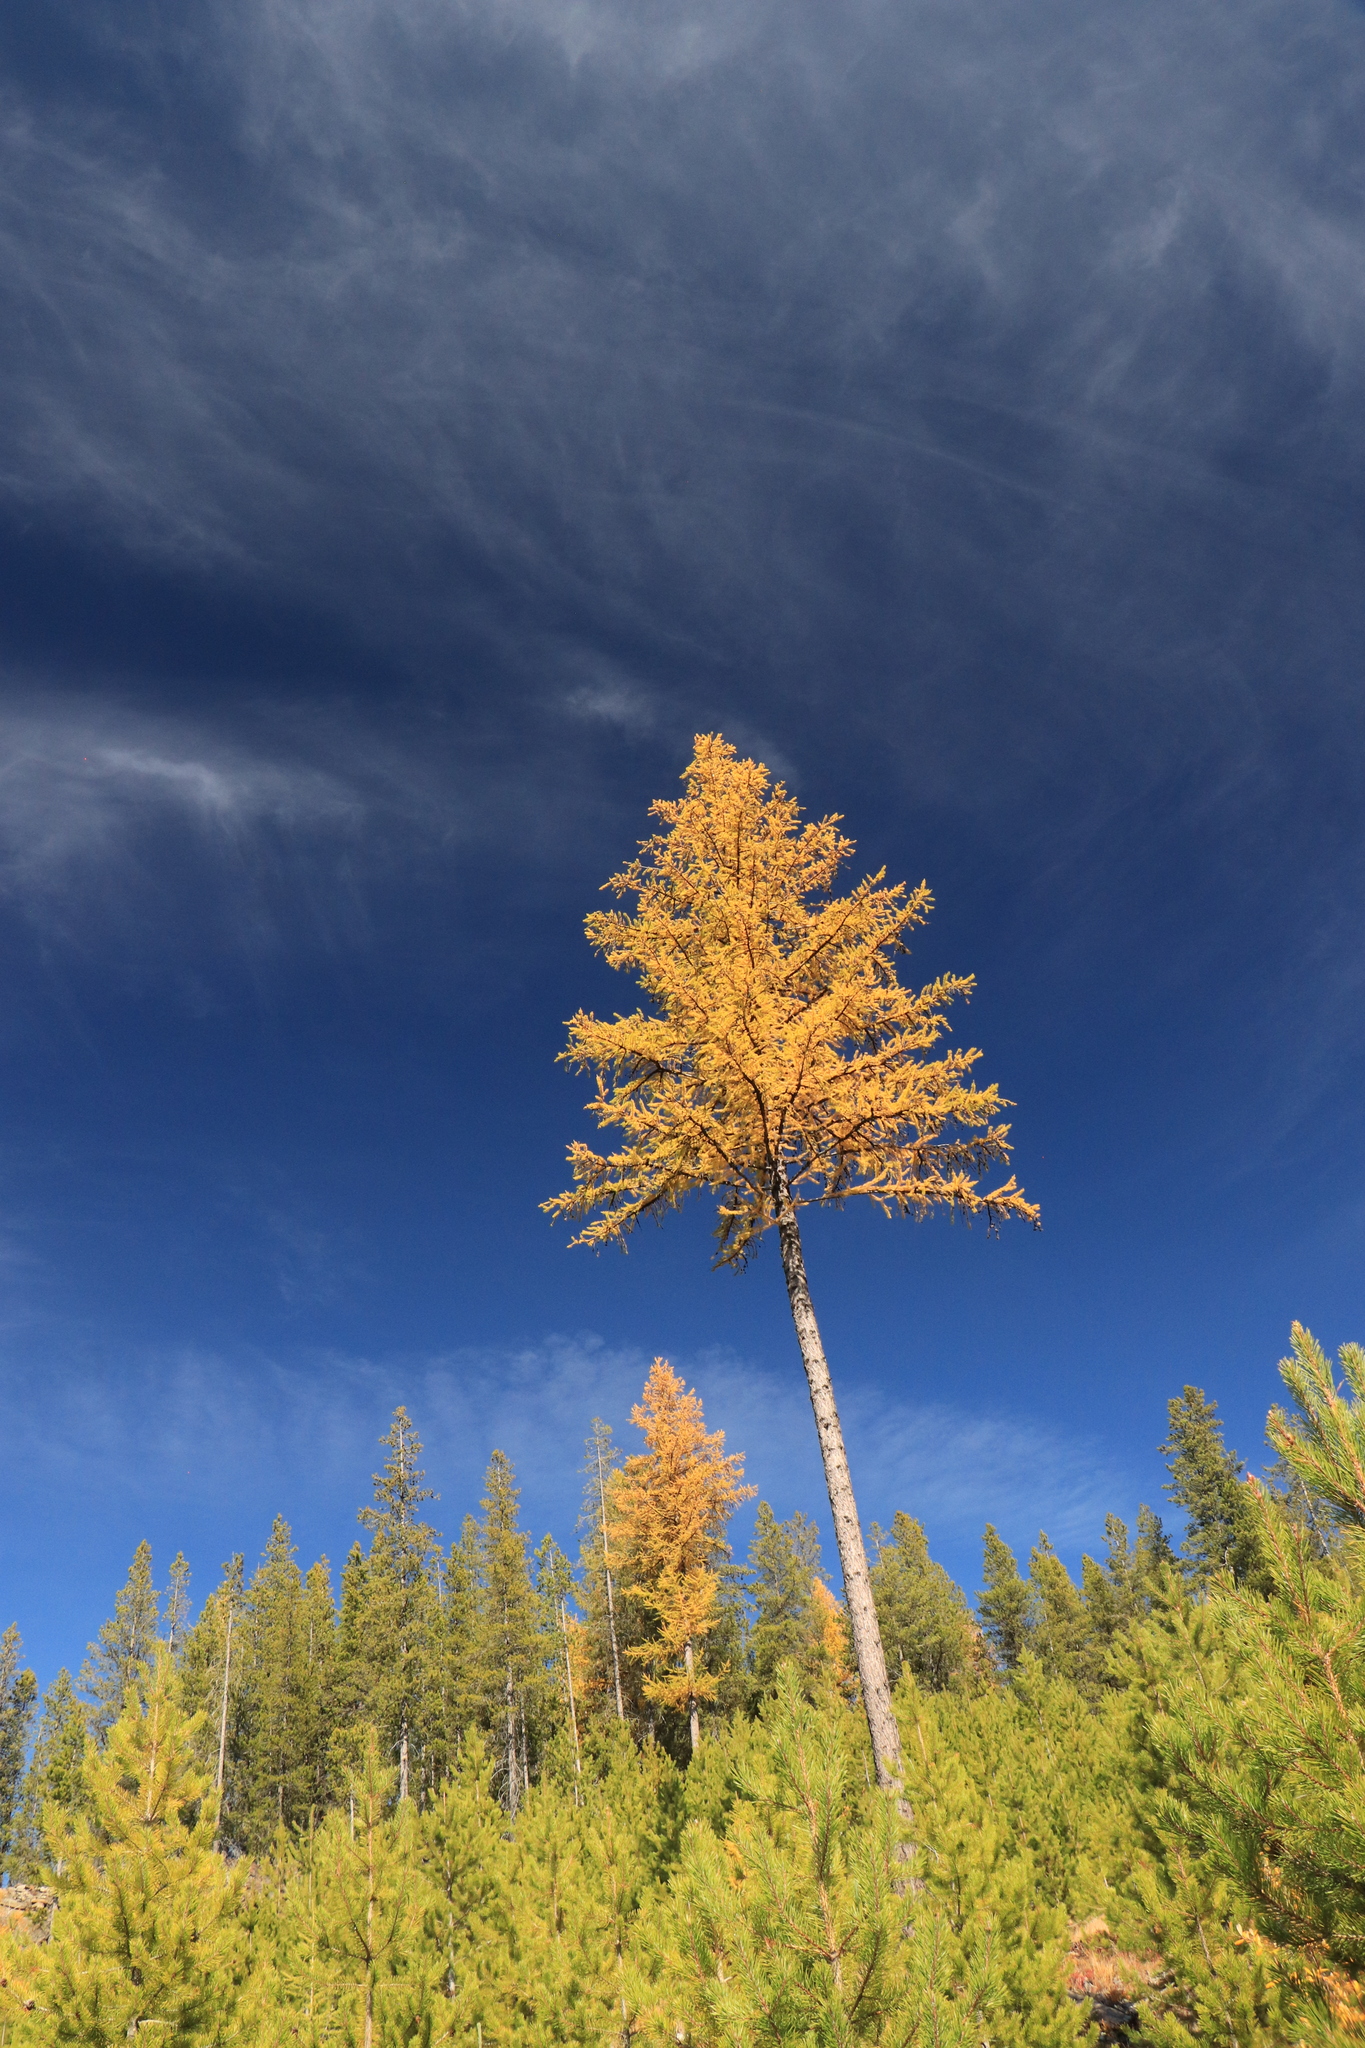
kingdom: Plantae
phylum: Tracheophyta
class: Pinopsida
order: Pinales
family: Pinaceae
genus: Larix
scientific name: Larix occidentalis
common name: Western larch
